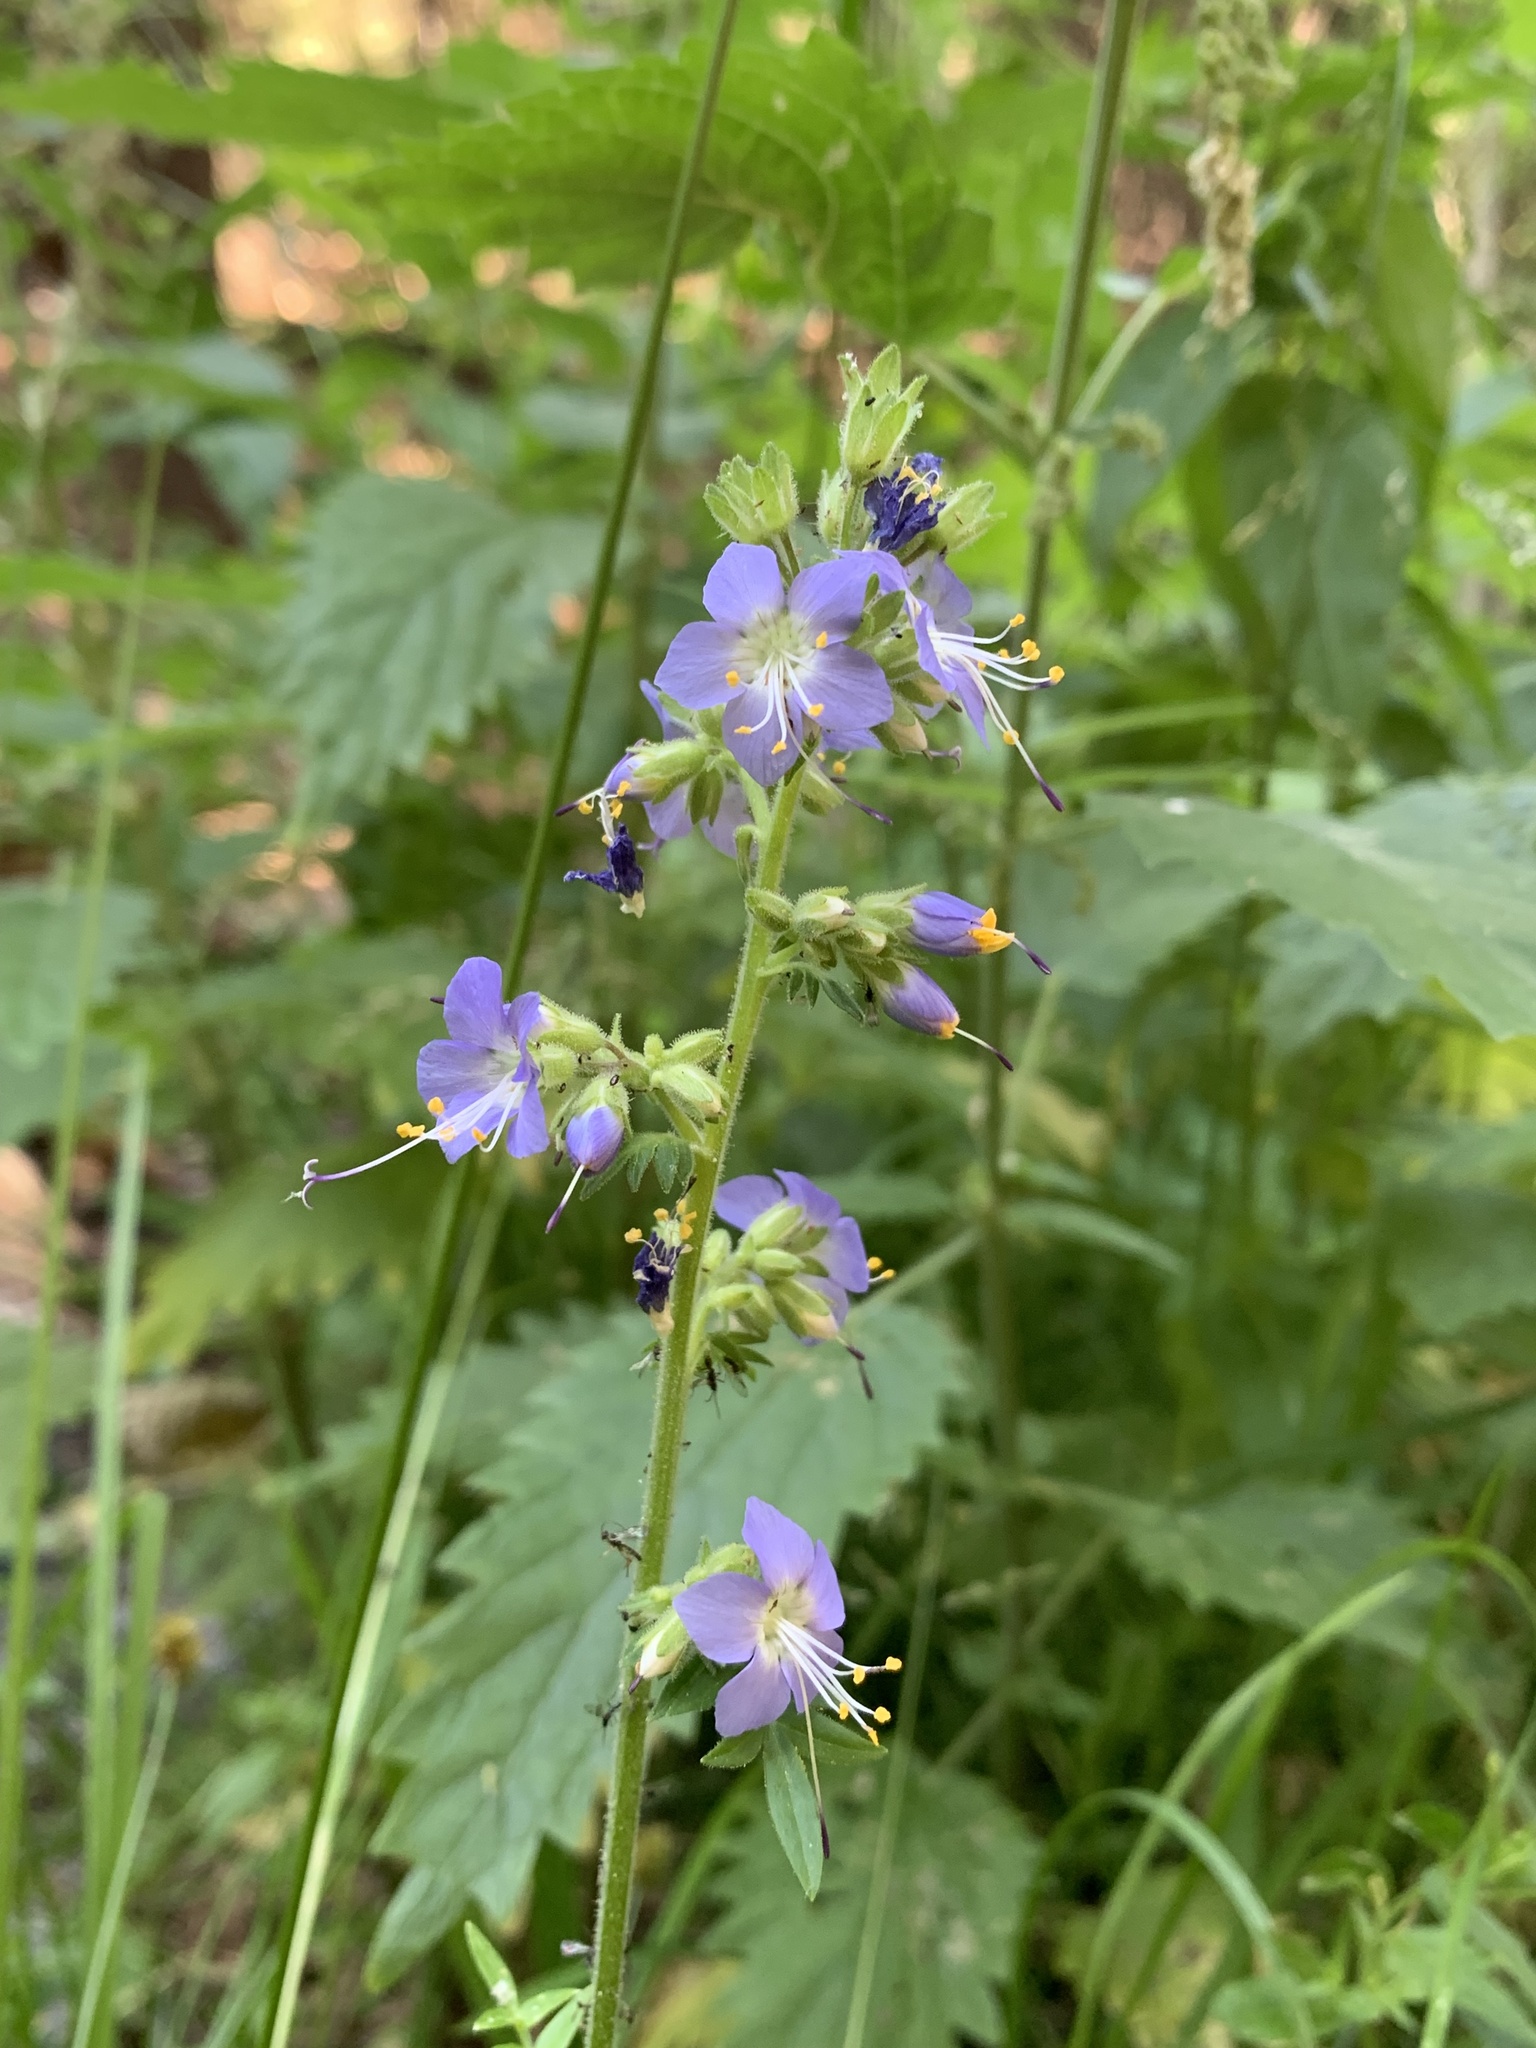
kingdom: Plantae
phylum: Tracheophyta
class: Magnoliopsida
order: Ericales
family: Polemoniaceae
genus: Polemonium
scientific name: Polemonium occidentale
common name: Western jacob's-ladder
